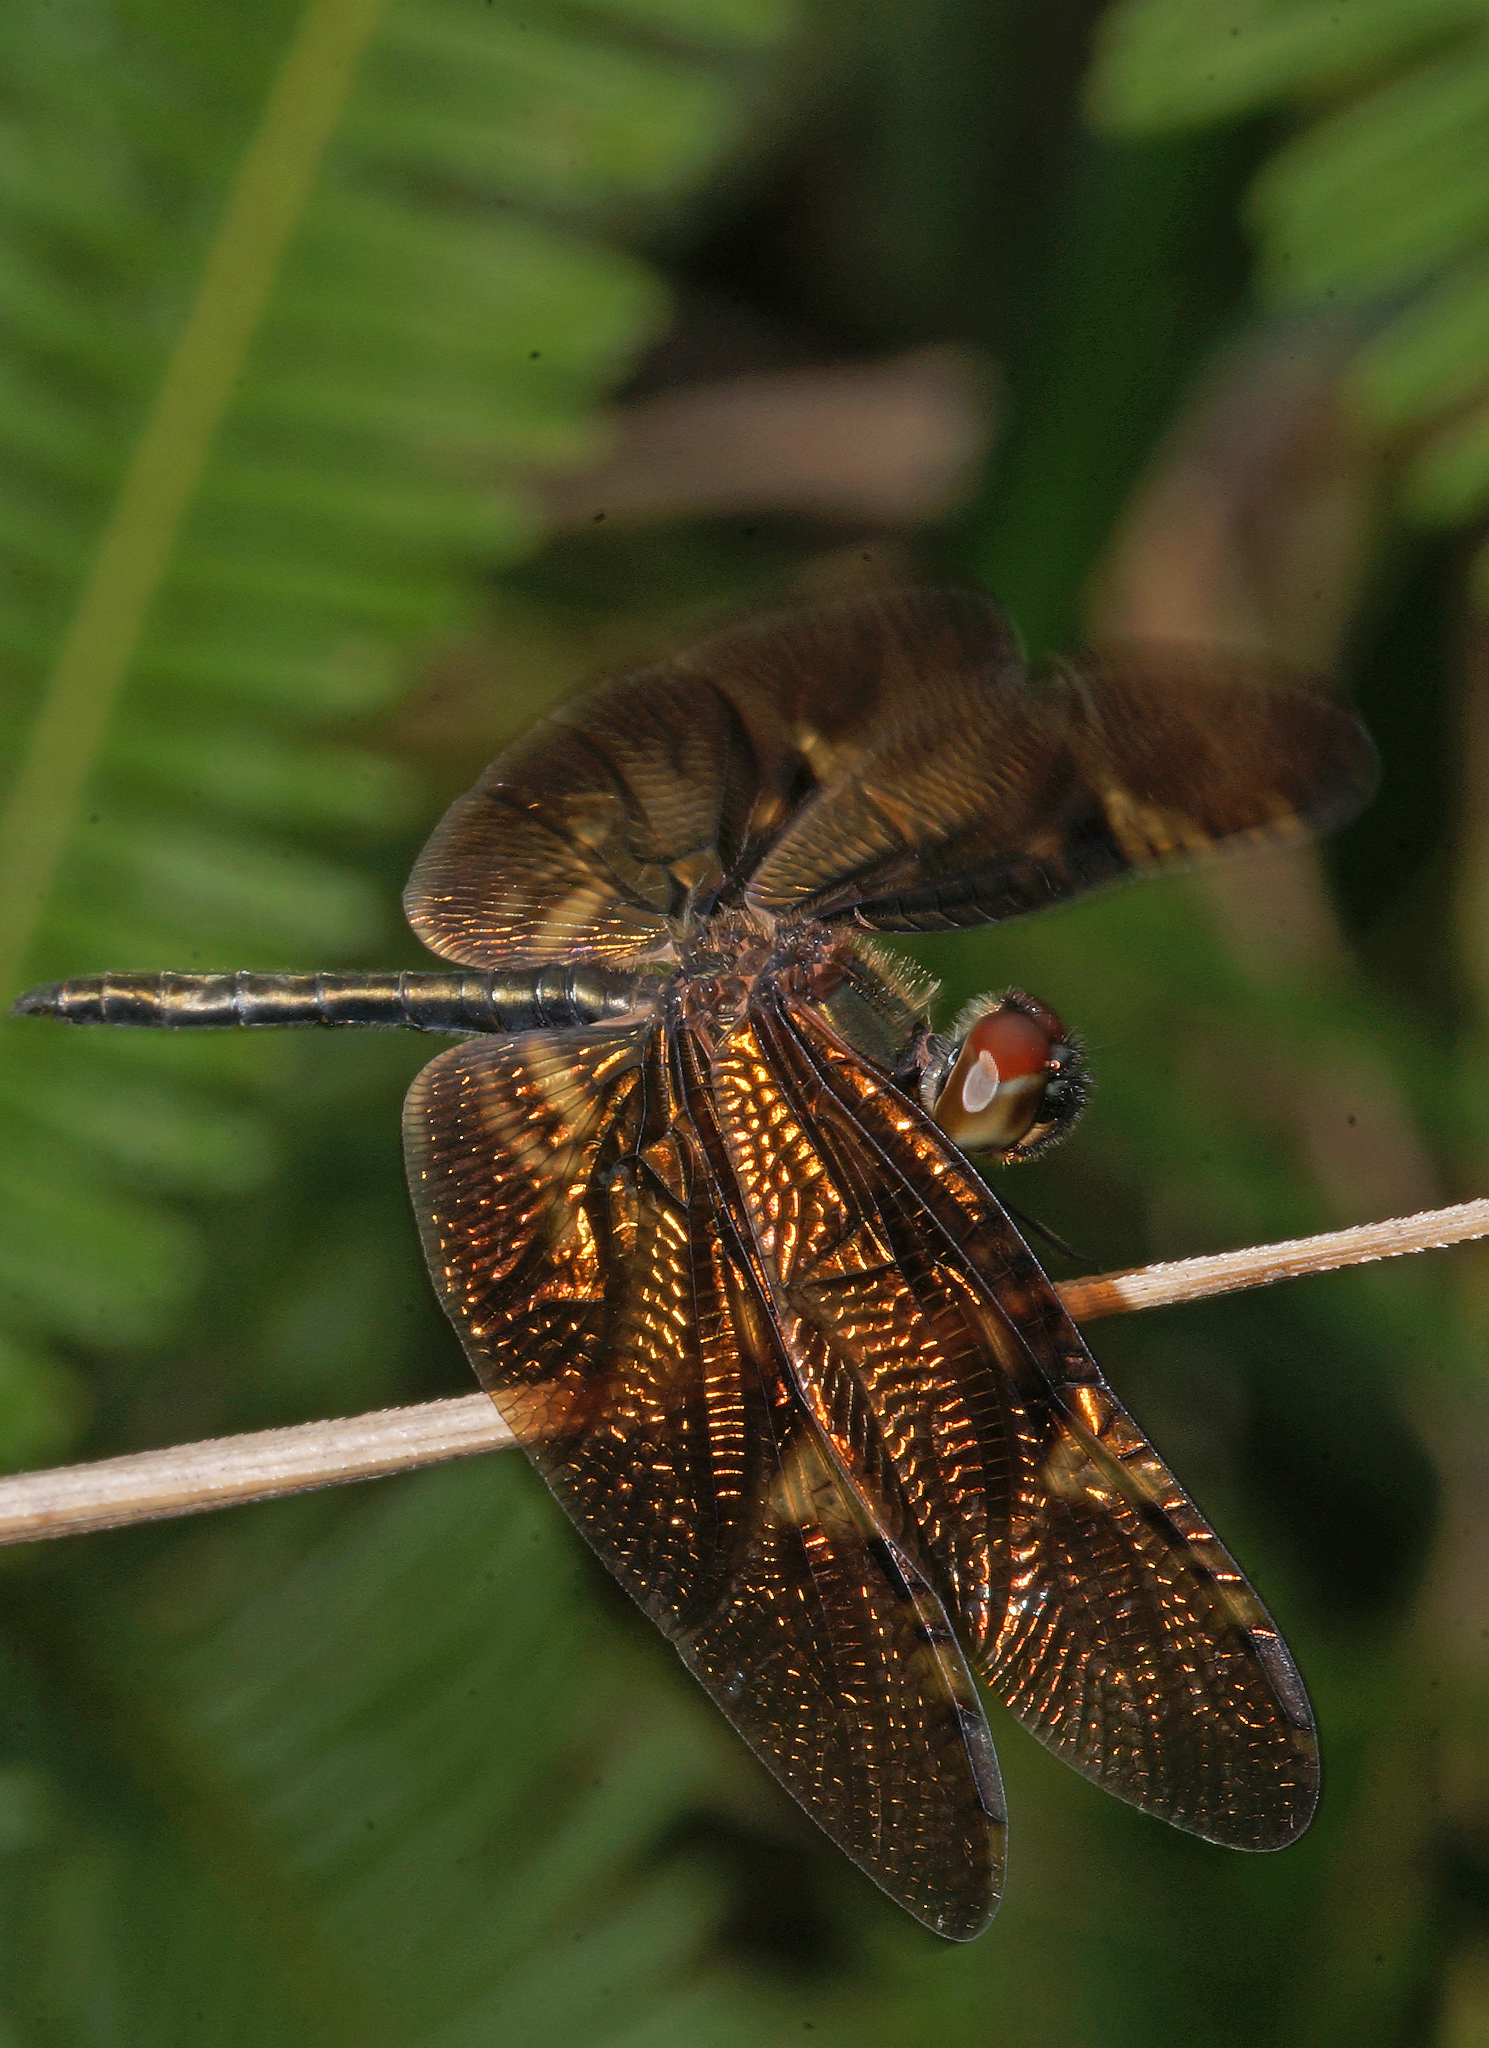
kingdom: Animalia
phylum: Arthropoda
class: Insecta
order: Odonata
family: Libellulidae
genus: Rhyothemis
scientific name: Rhyothemis obsolescens
